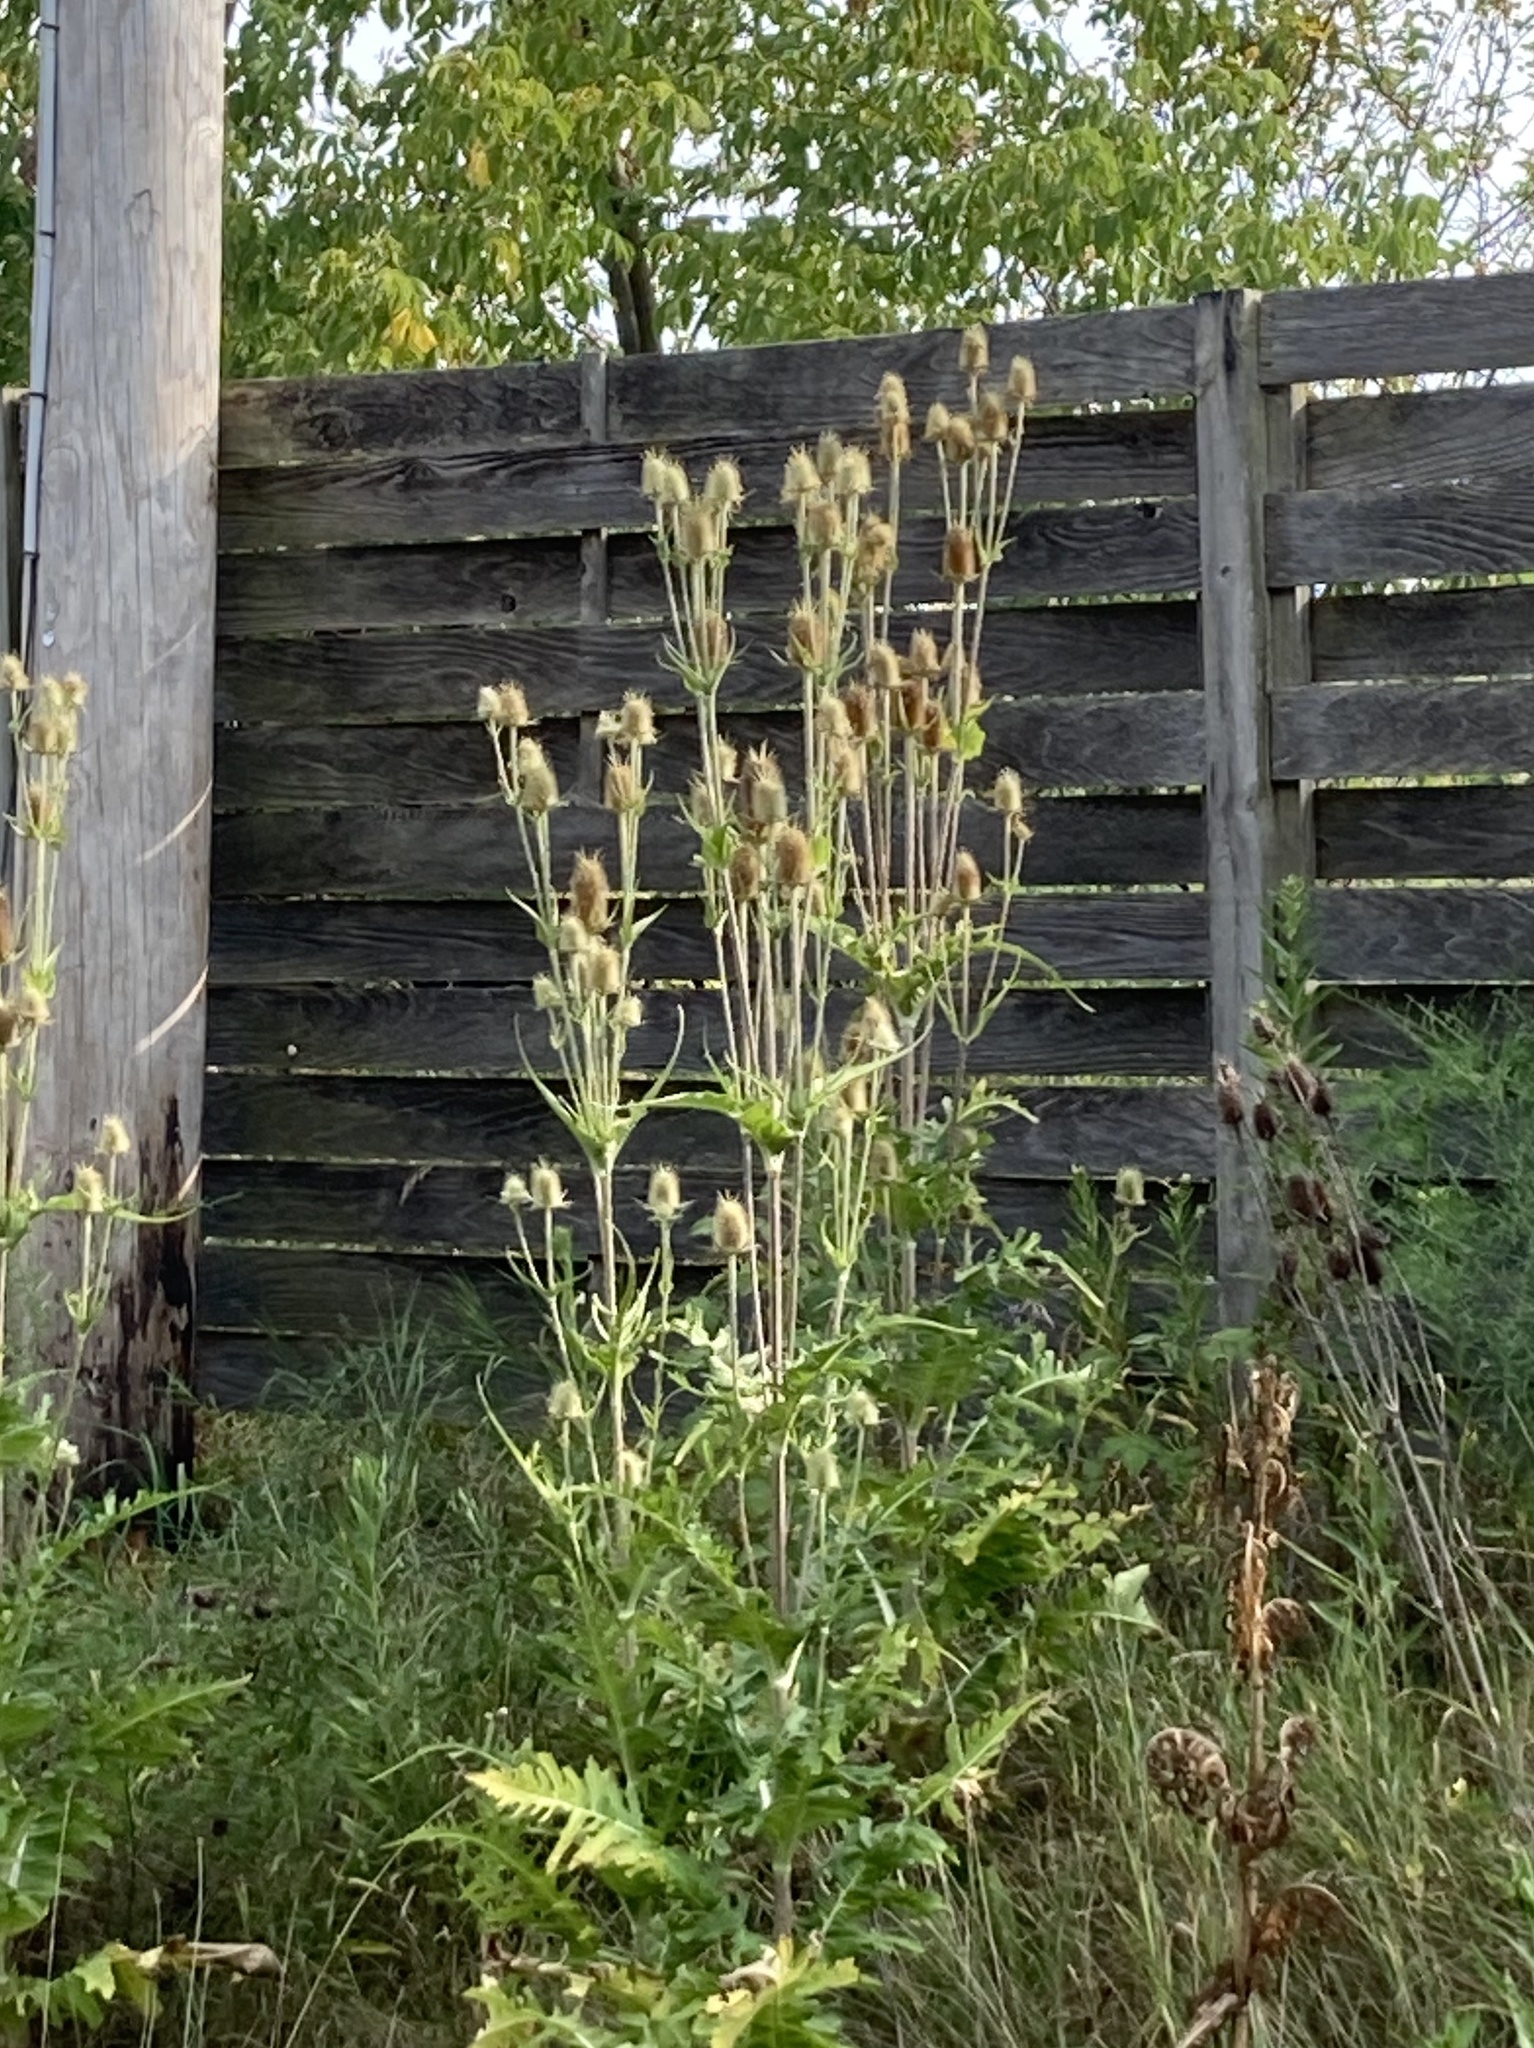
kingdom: Plantae
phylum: Tracheophyta
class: Magnoliopsida
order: Dipsacales
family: Caprifoliaceae
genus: Dipsacus
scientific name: Dipsacus laciniatus
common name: Cut-leaved teasel
